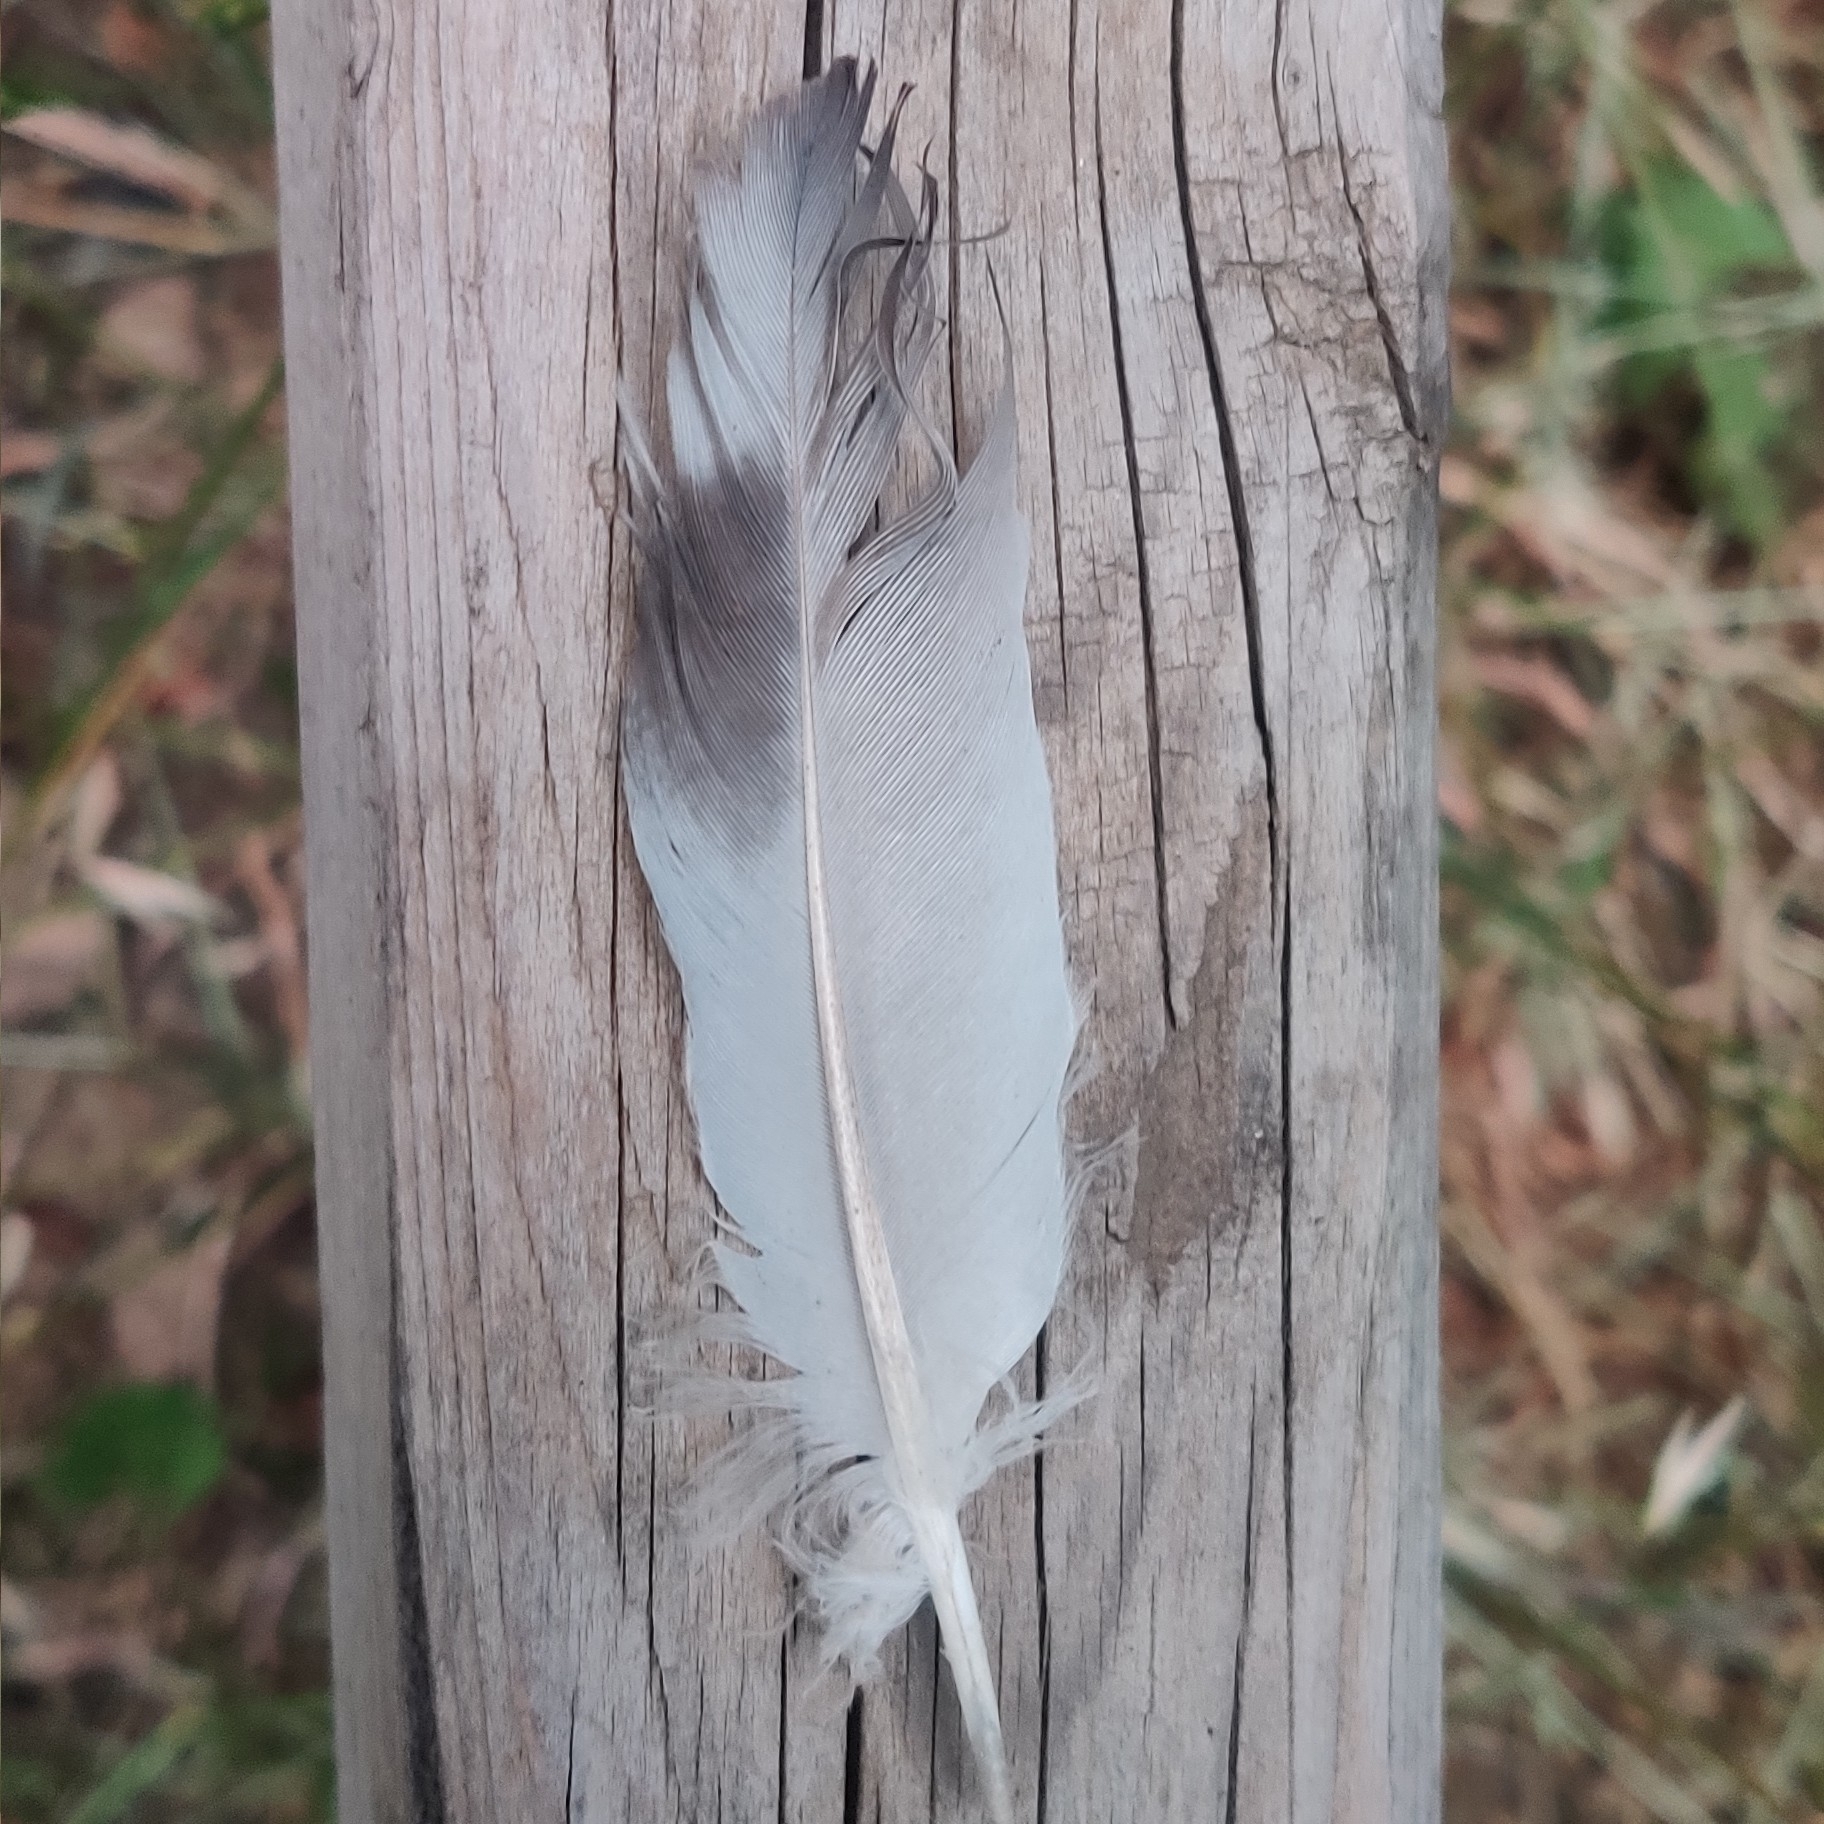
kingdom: Animalia
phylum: Chordata
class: Aves
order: Columbiformes
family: Columbidae
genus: Columba
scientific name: Columba livia
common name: Rock pigeon
